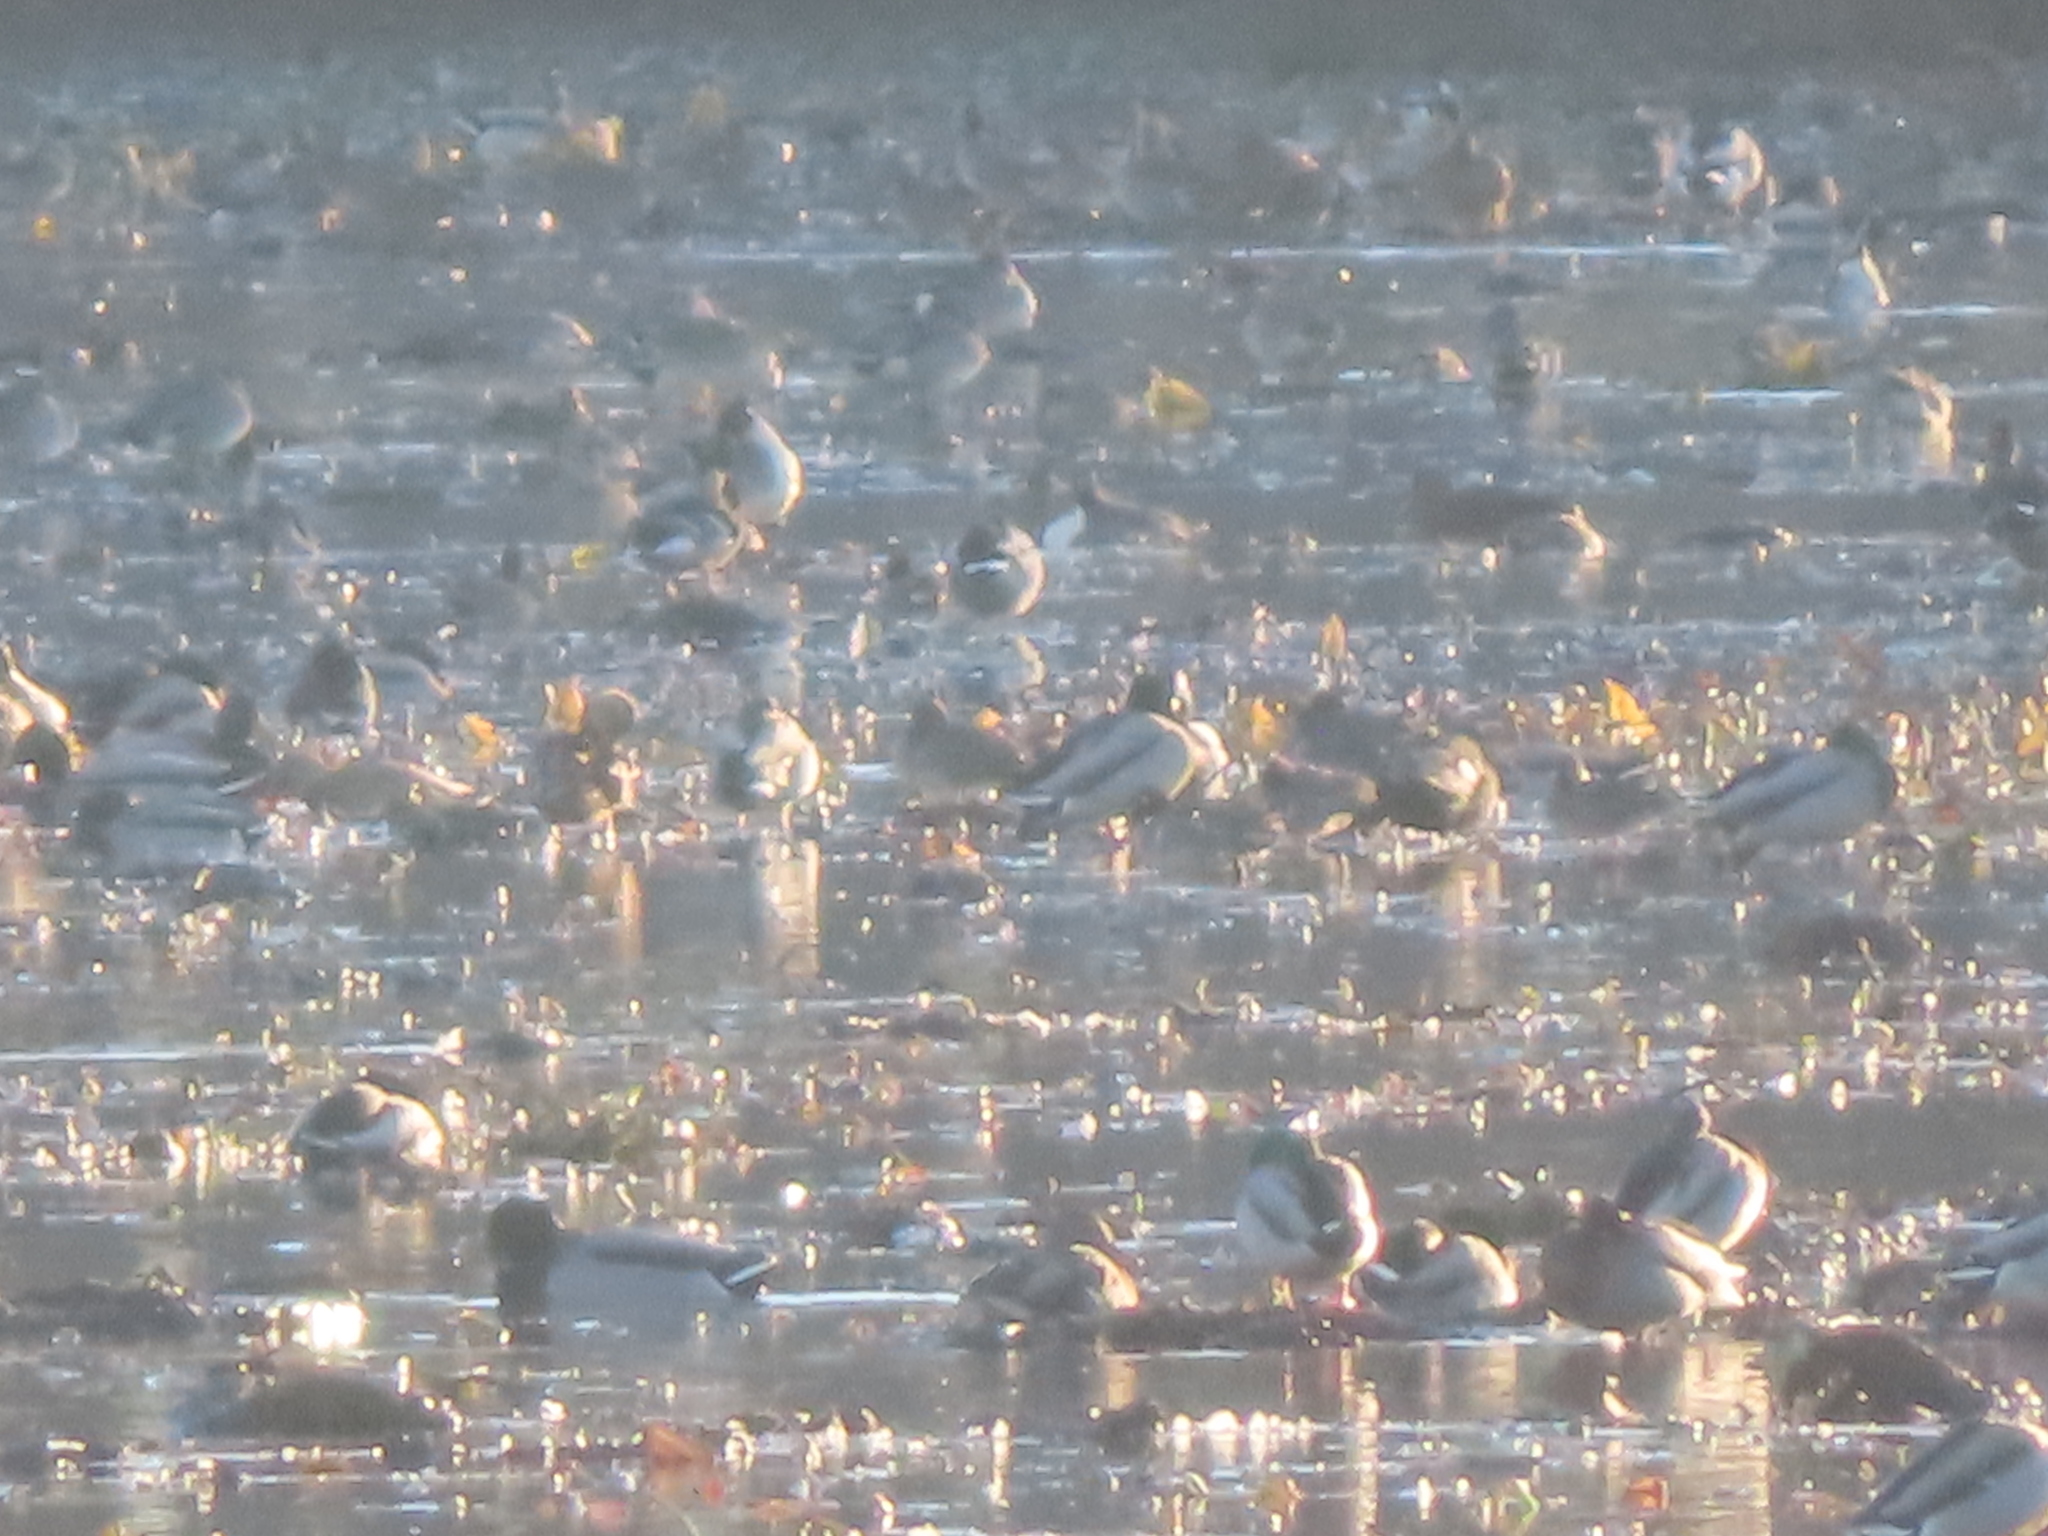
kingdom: Animalia
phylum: Chordata
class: Aves
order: Anseriformes
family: Anatidae
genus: Anas
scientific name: Anas platyrhynchos
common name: Mallard
